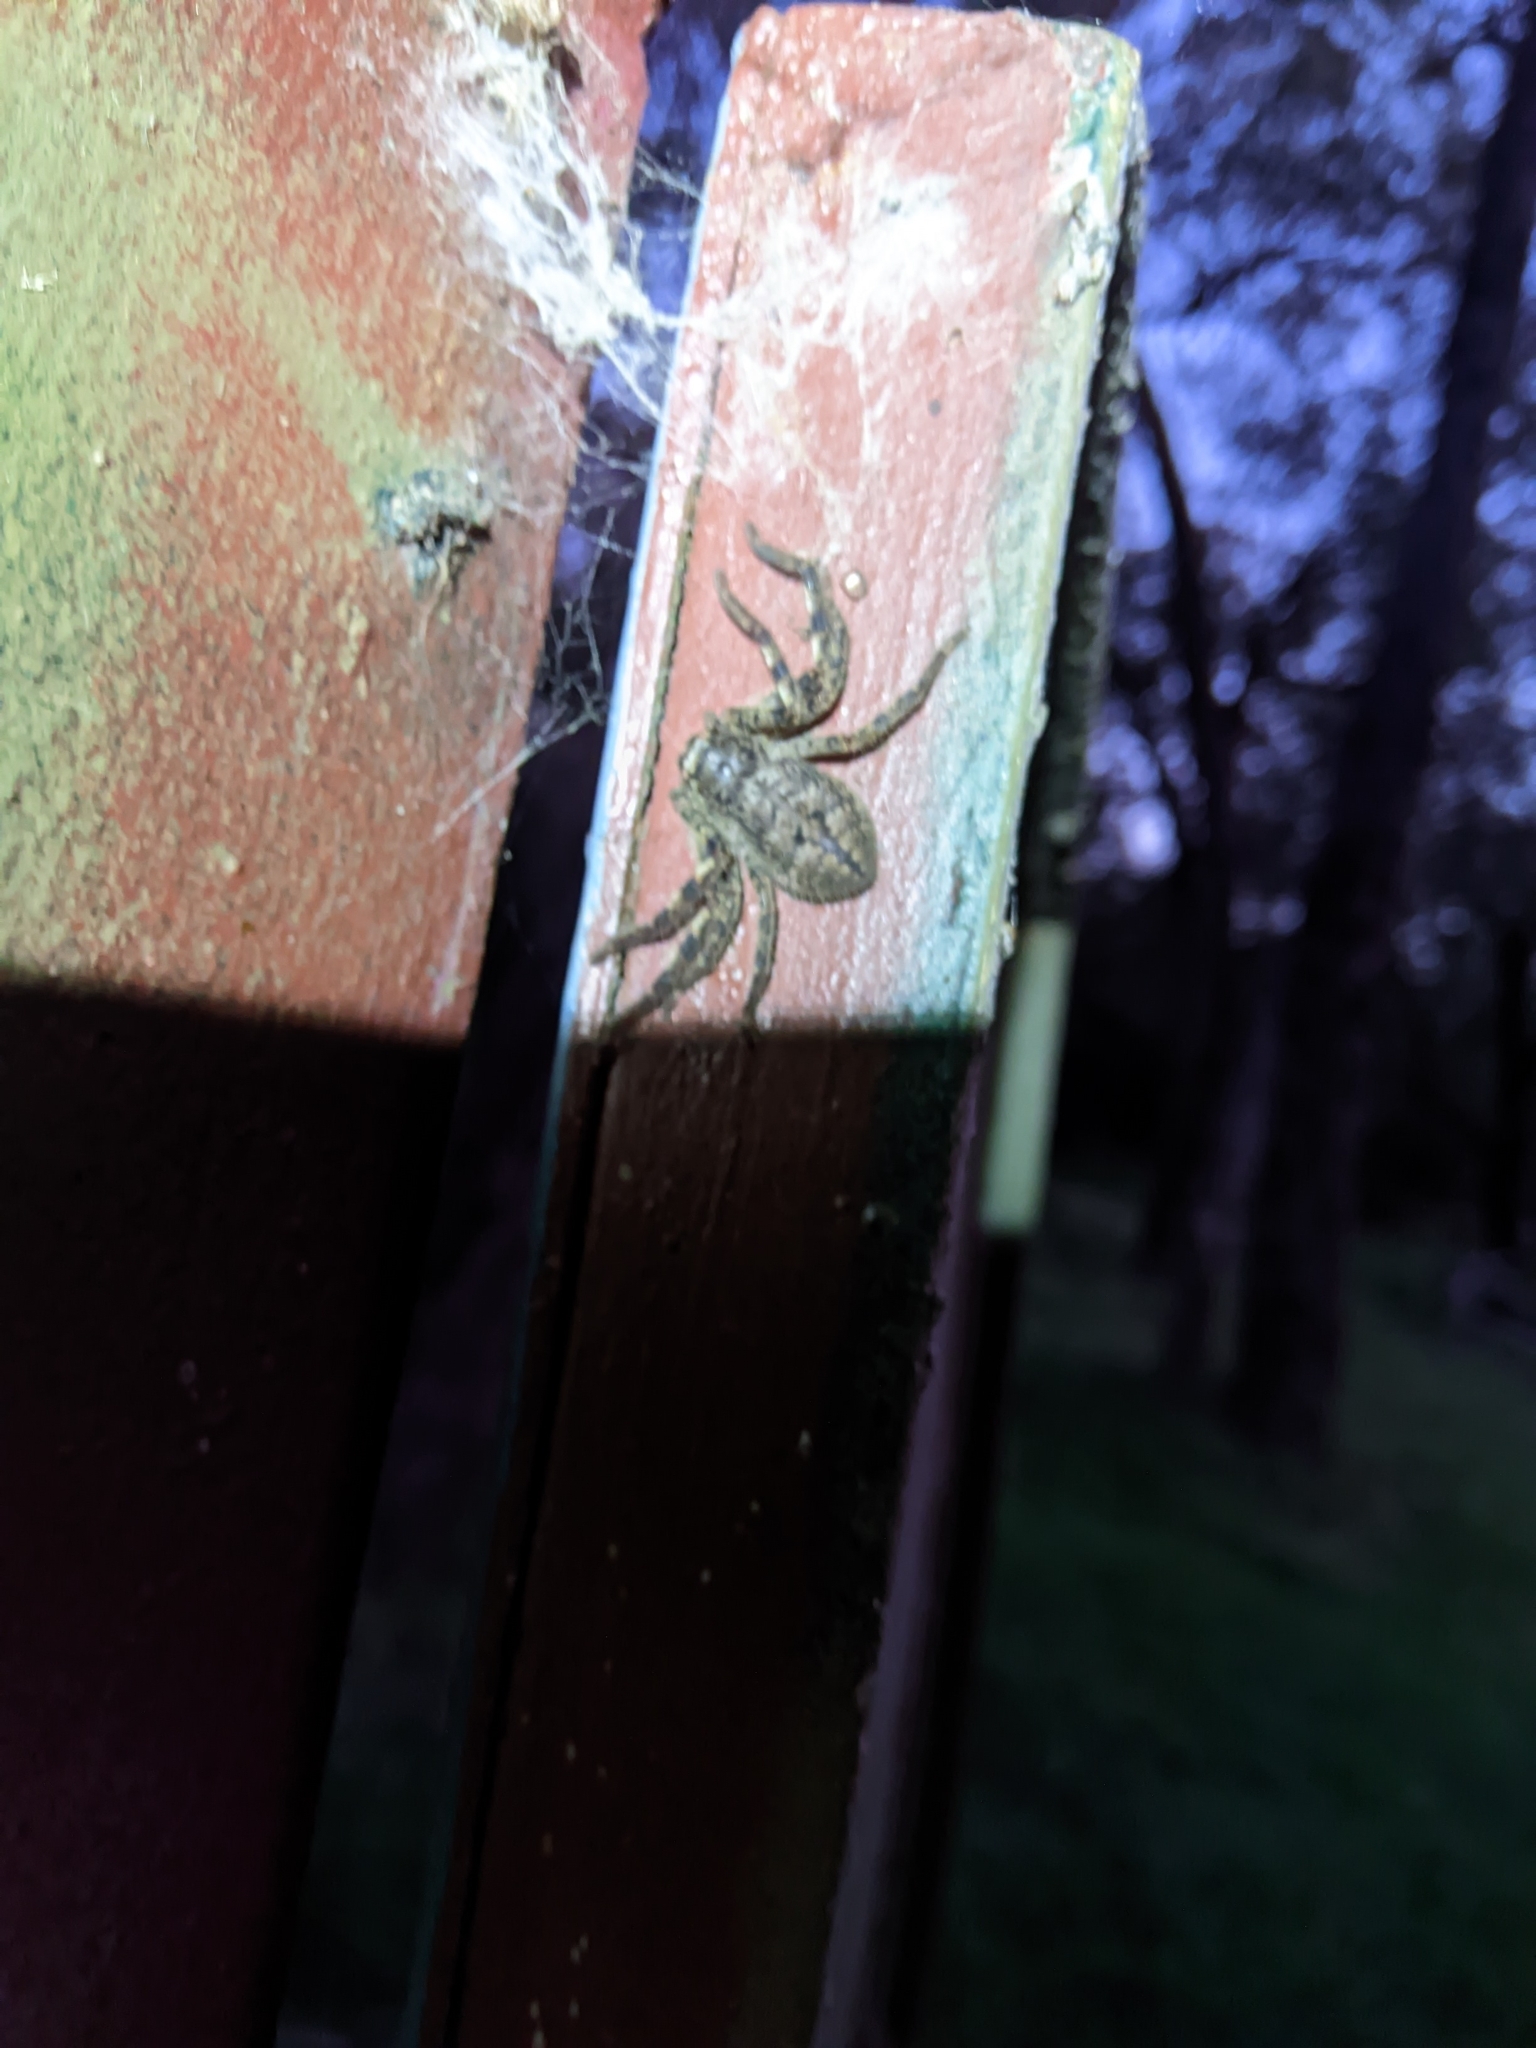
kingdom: Animalia
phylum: Arthropoda
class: Arachnida
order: Araneae
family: Sparassidae
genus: Isopedella
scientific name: Isopedella victorialis
